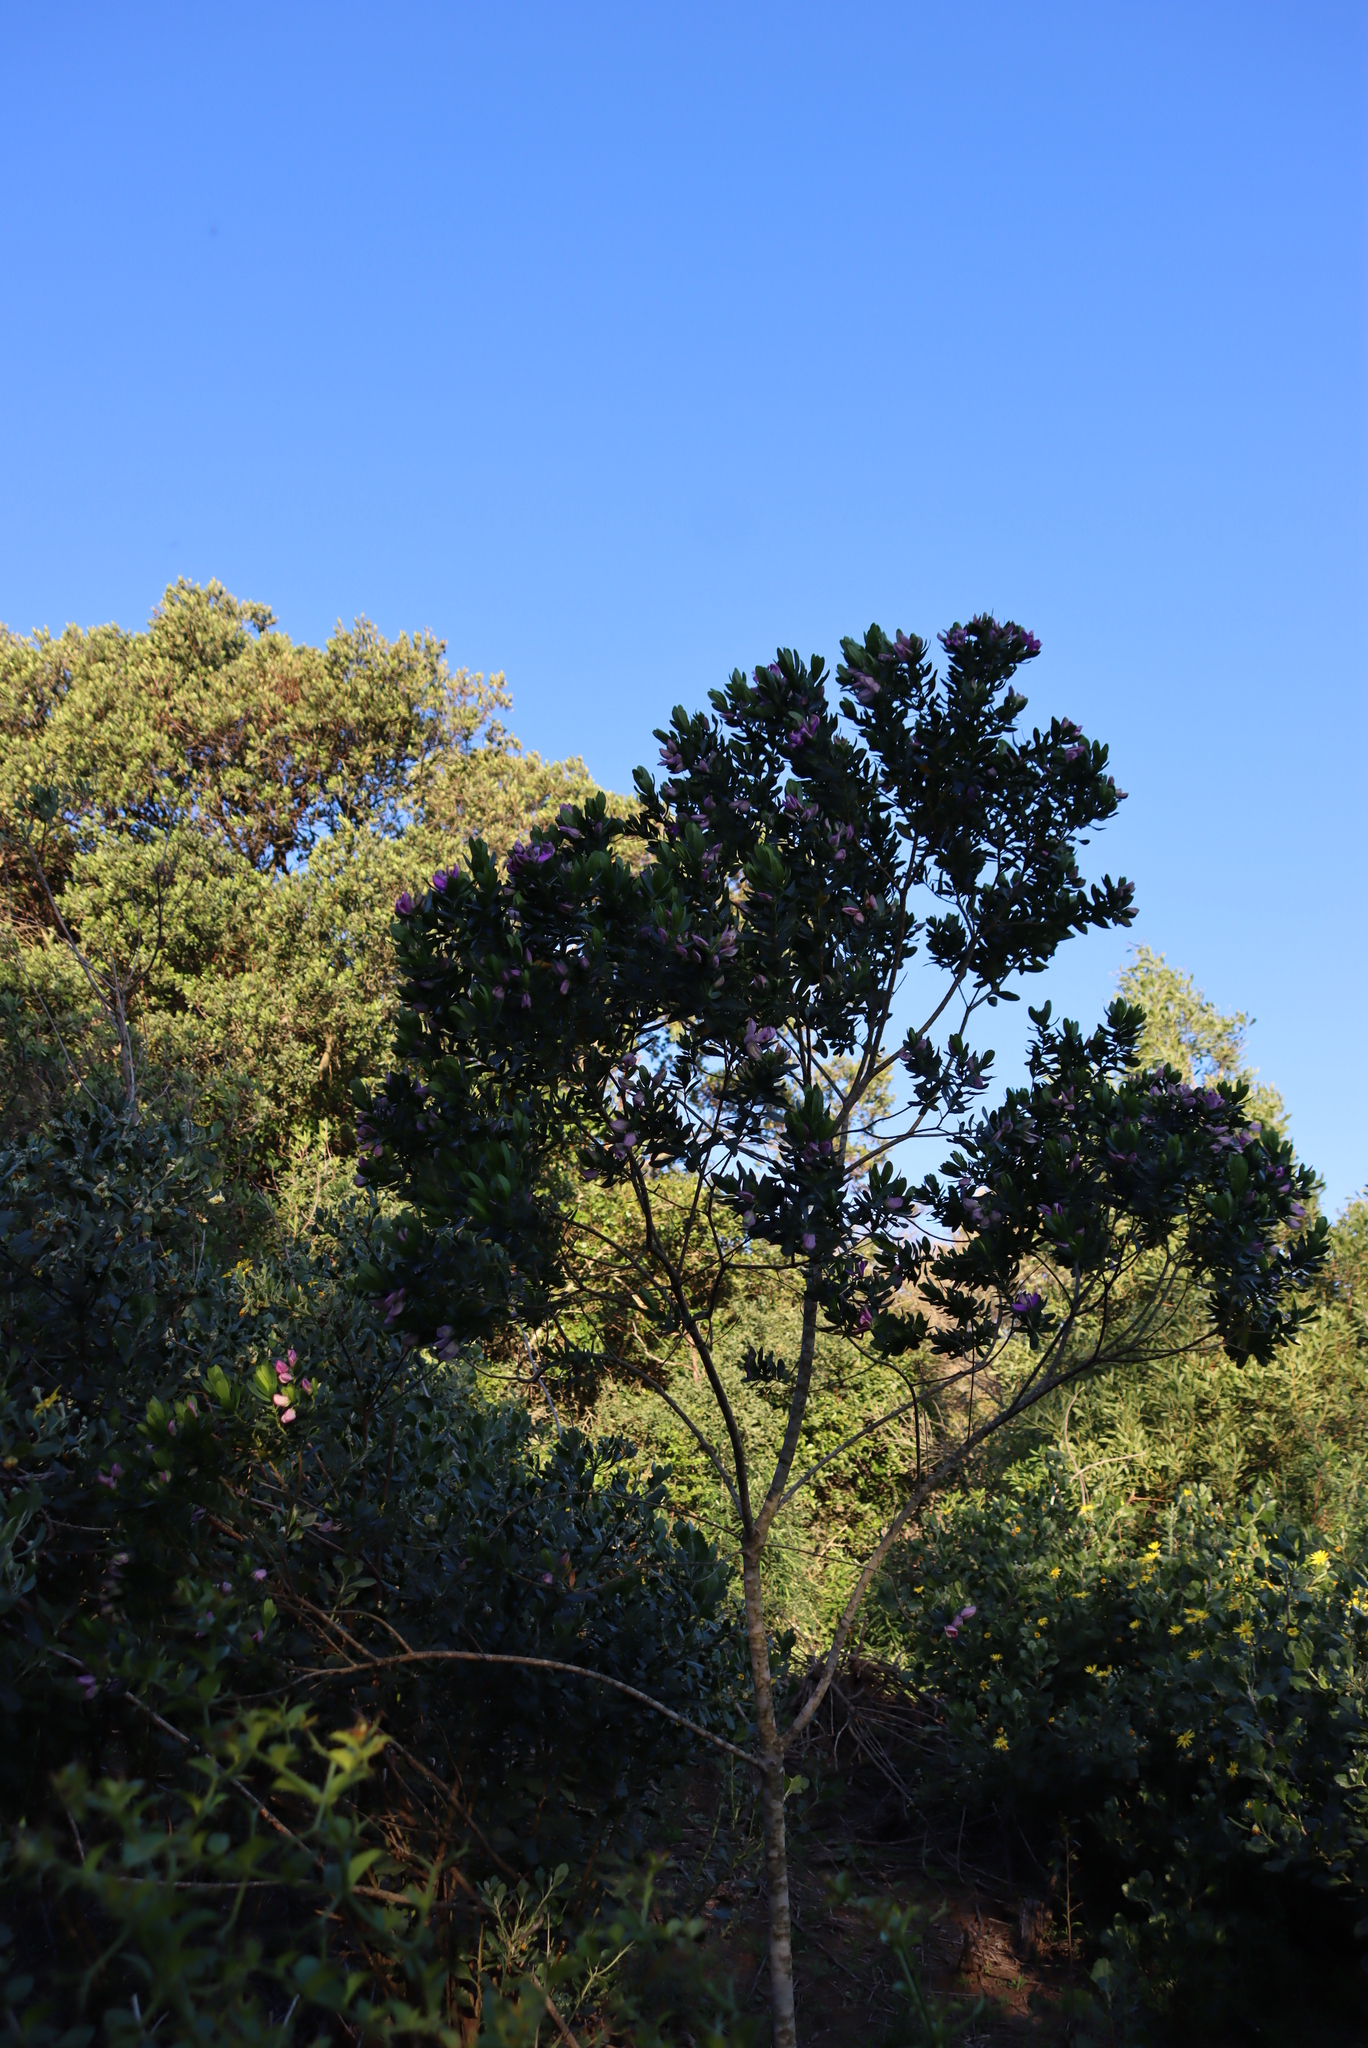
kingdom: Plantae
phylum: Tracheophyta
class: Magnoliopsida
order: Fabales
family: Polygalaceae
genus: Polygala
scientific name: Polygala myrtifolia
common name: Myrtle-leaf milkwort
